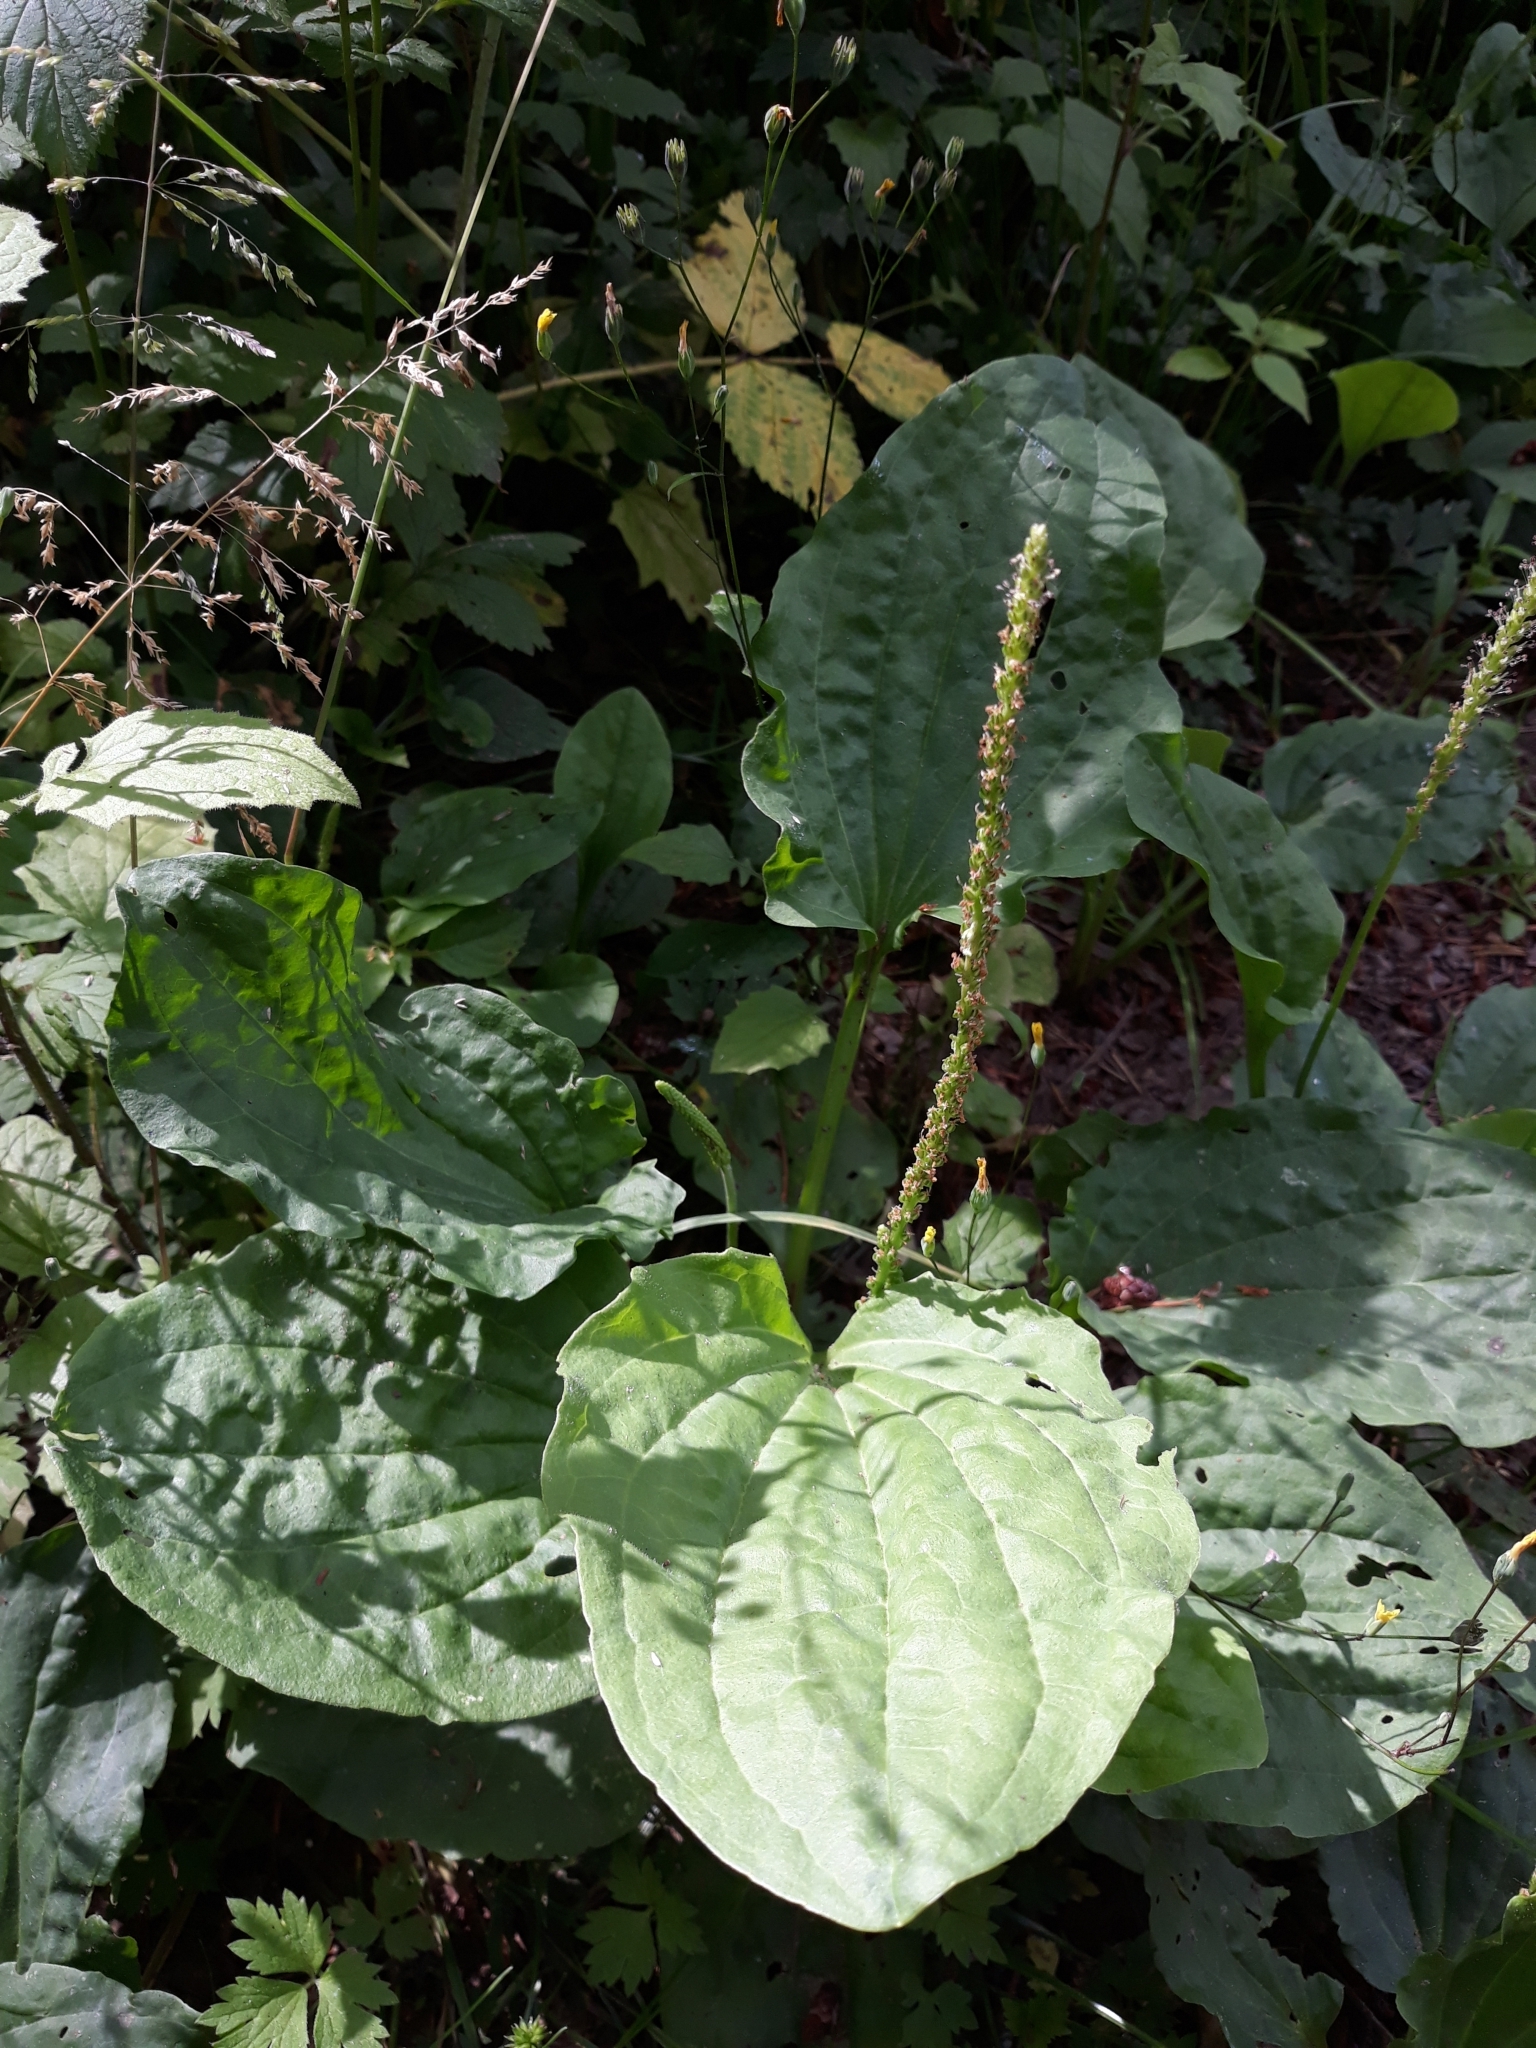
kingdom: Plantae
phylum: Tracheophyta
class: Magnoliopsida
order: Lamiales
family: Plantaginaceae
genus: Plantago
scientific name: Plantago major
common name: Common plantain
